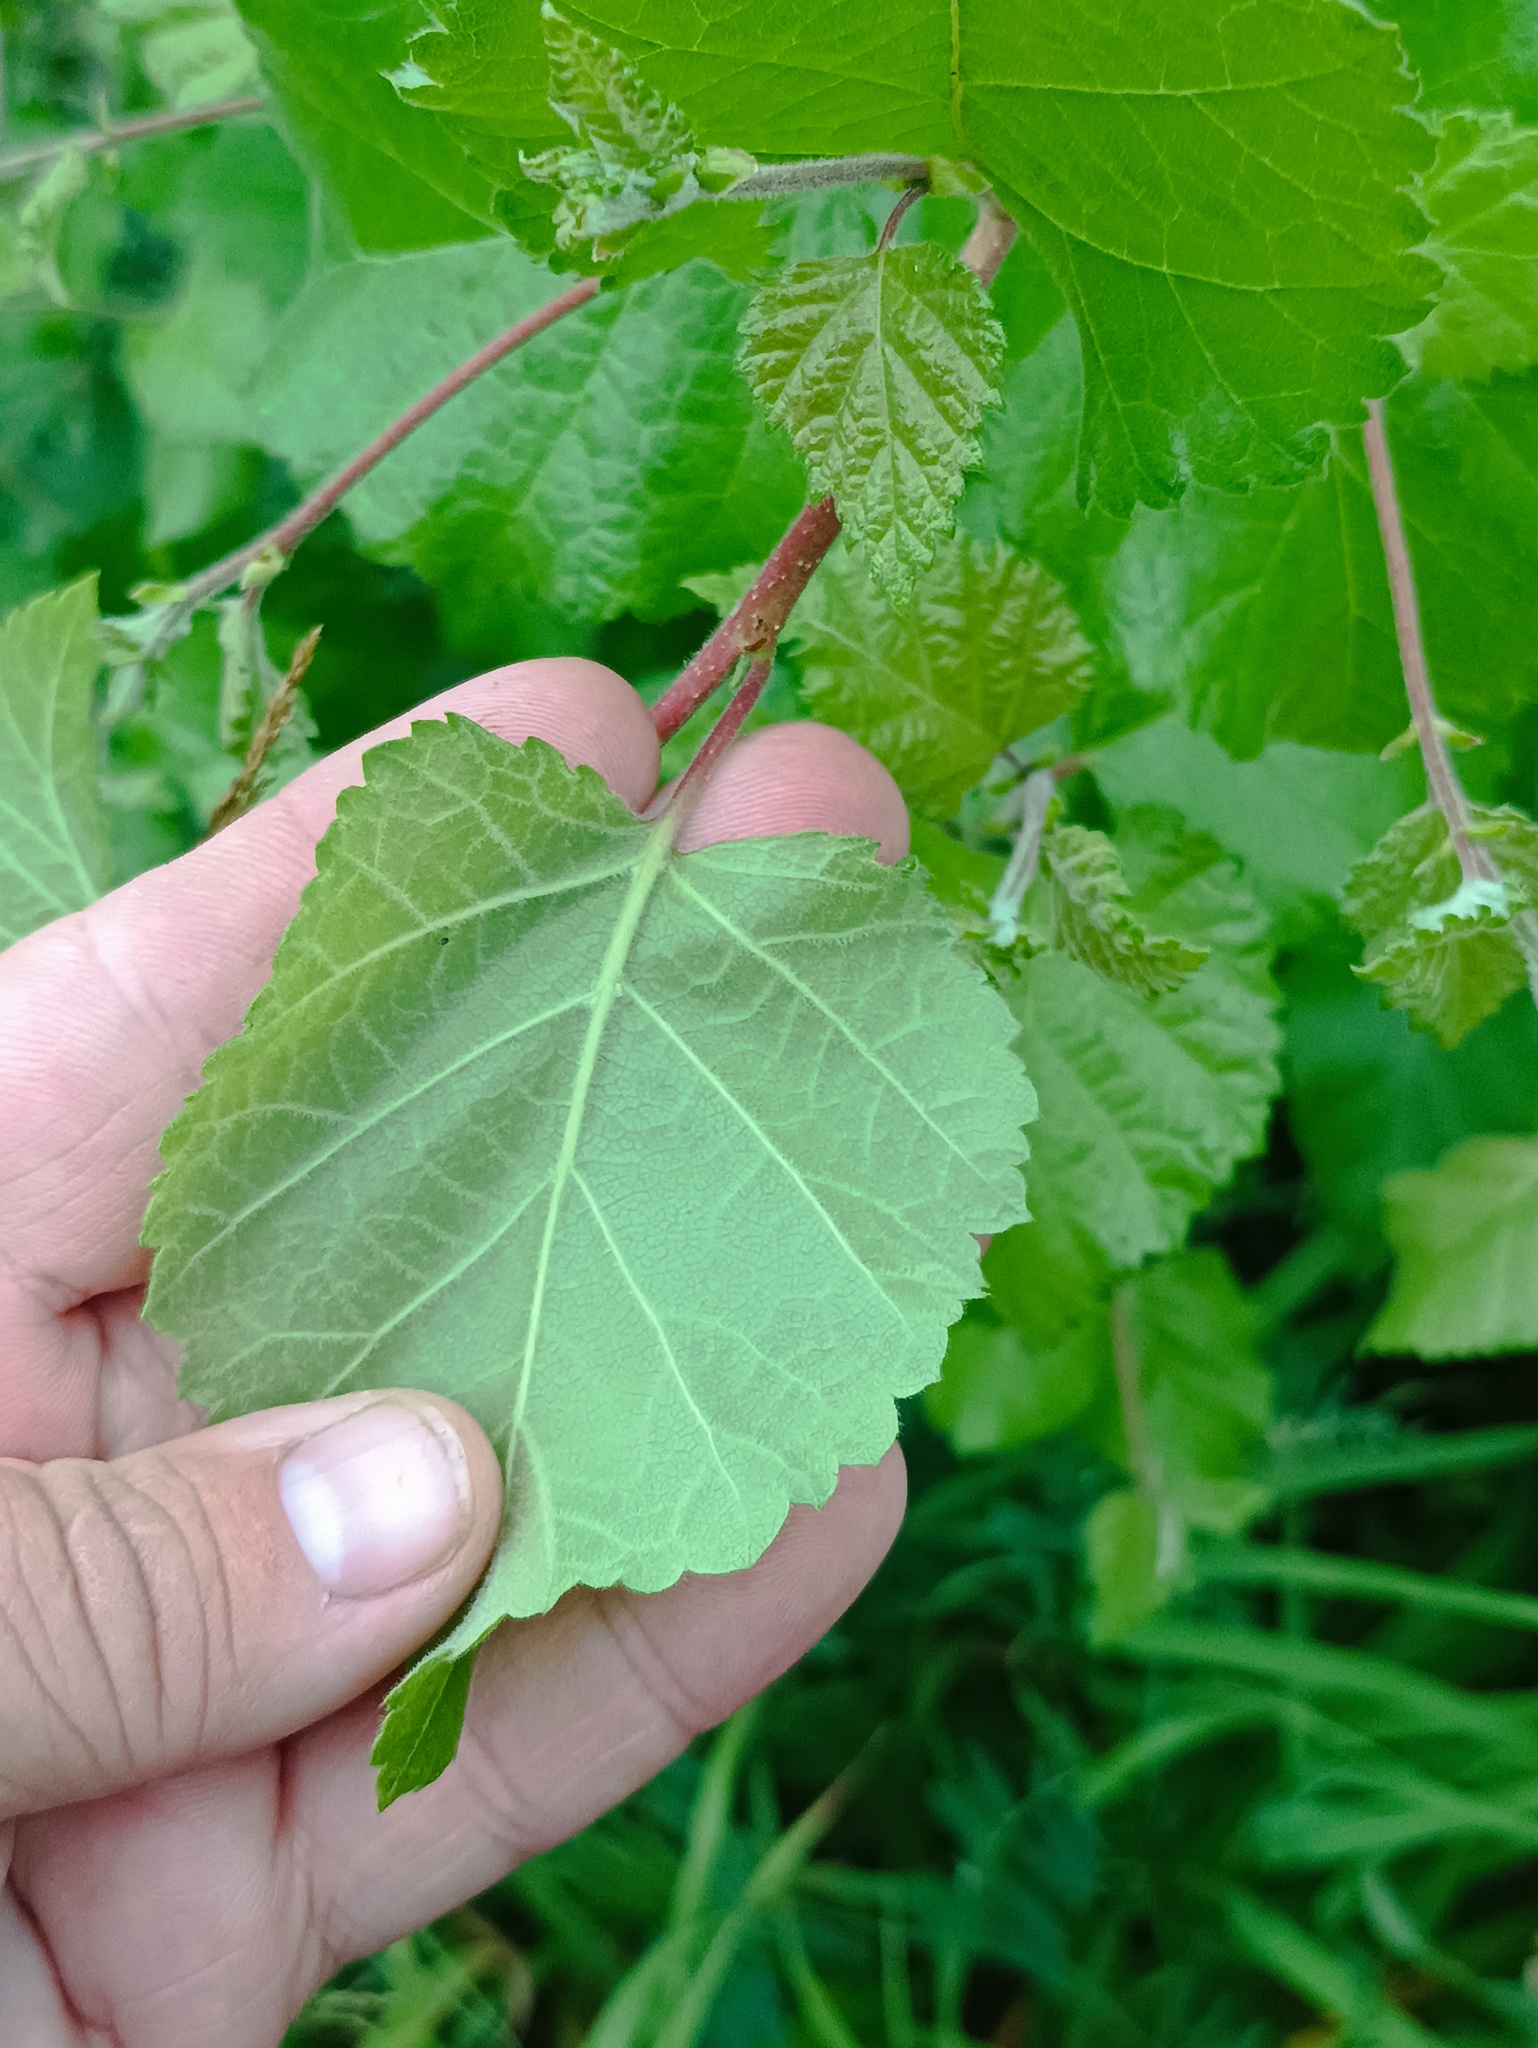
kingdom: Plantae
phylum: Tracheophyta
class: Magnoliopsida
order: Fagales
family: Betulaceae
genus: Betula
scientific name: Betula pubescens
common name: Downy birch
